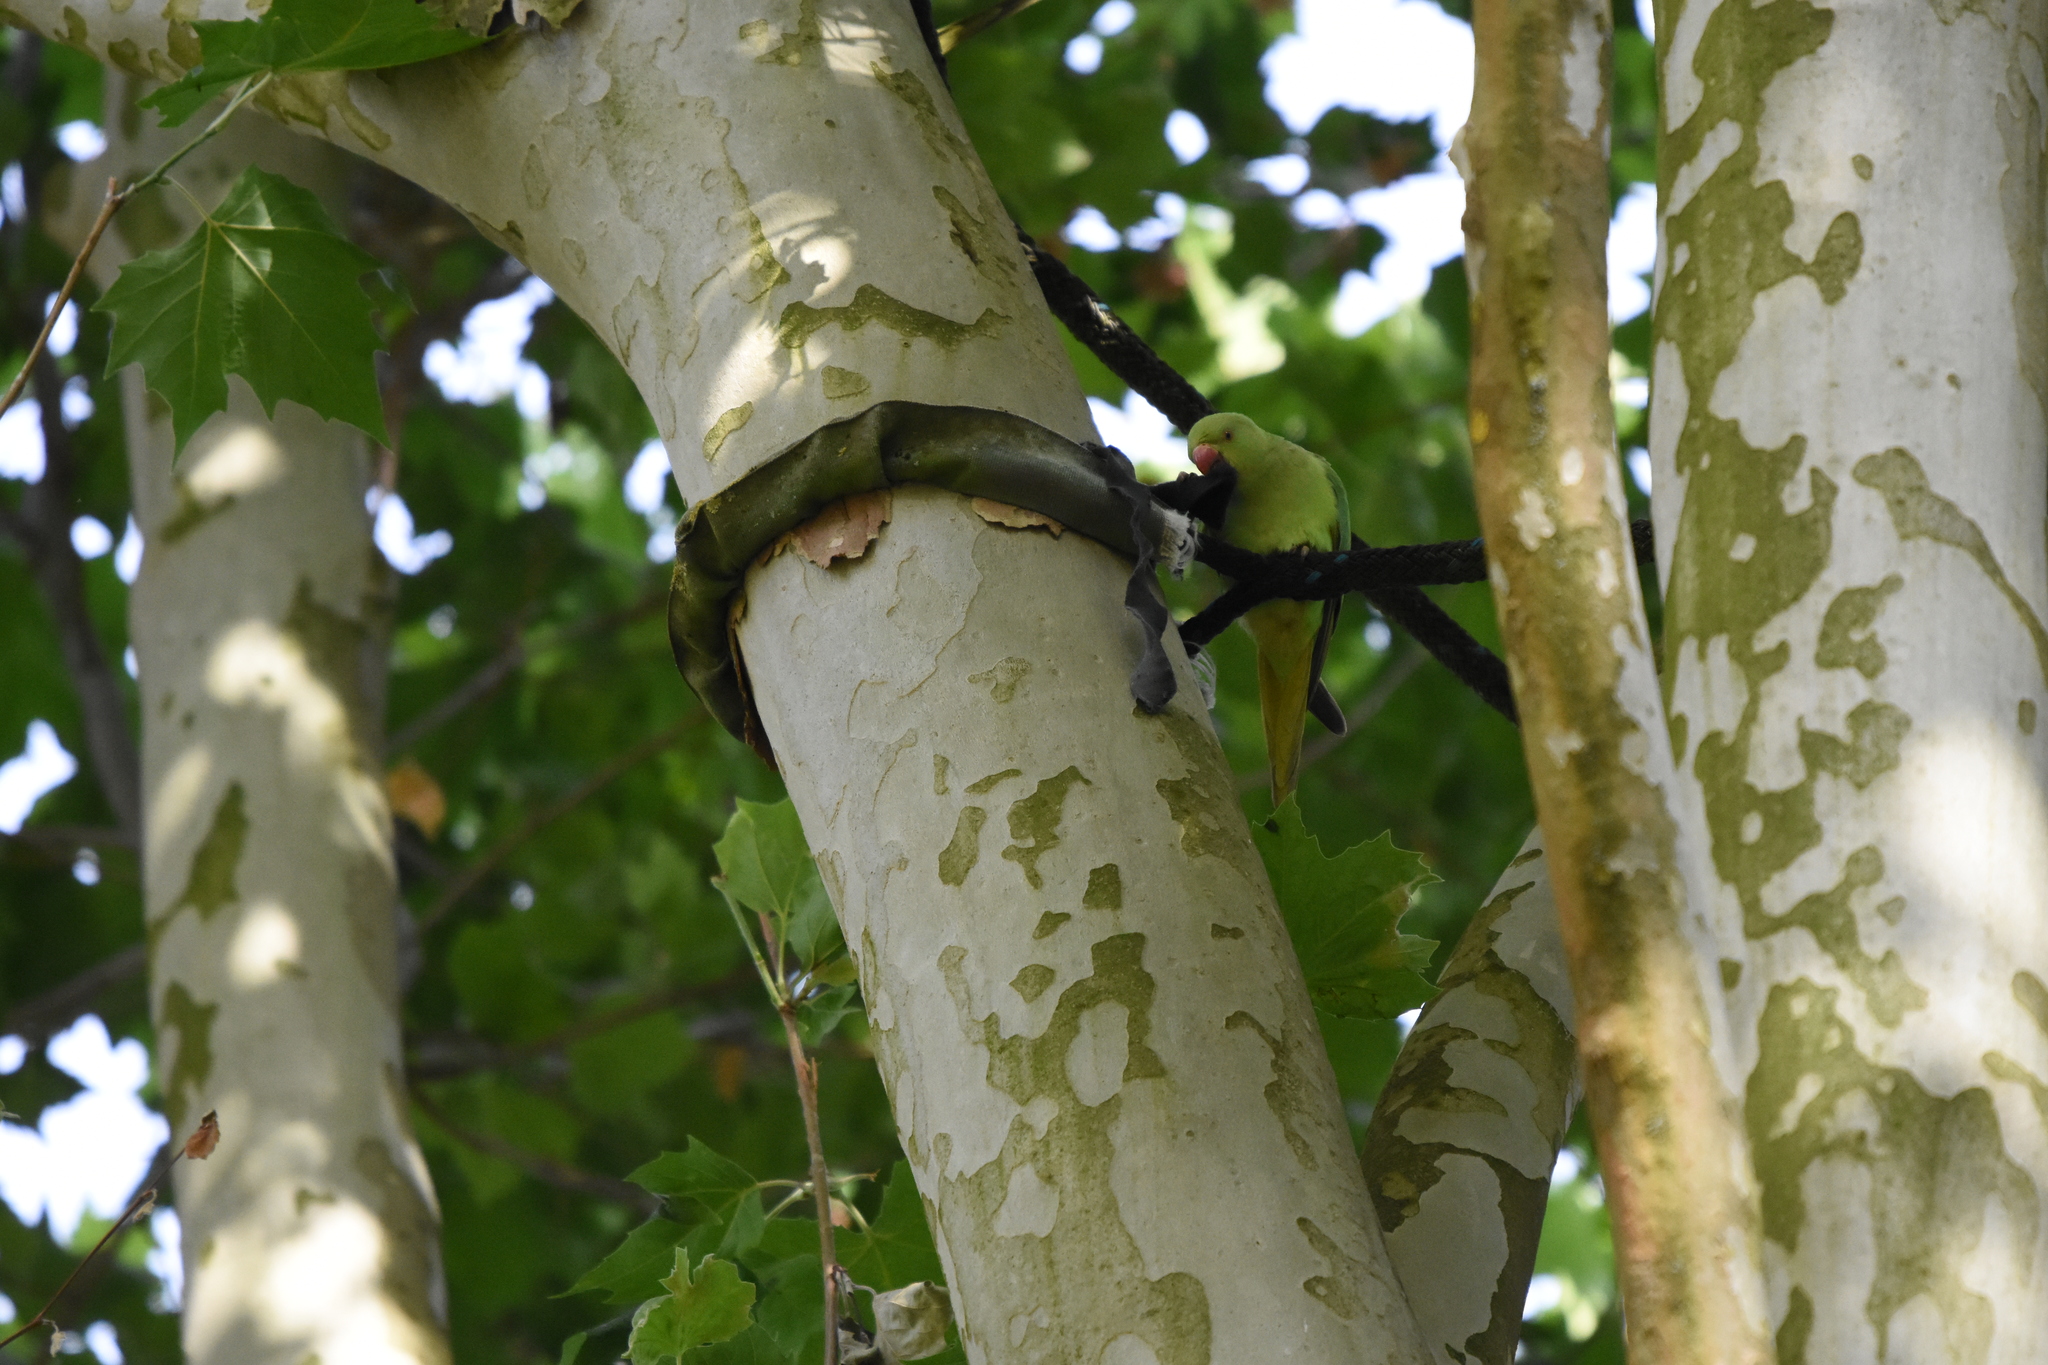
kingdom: Animalia
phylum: Chordata
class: Aves
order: Psittaciformes
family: Psittacidae
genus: Psittacula
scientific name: Psittacula krameri
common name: Rose-ringed parakeet
